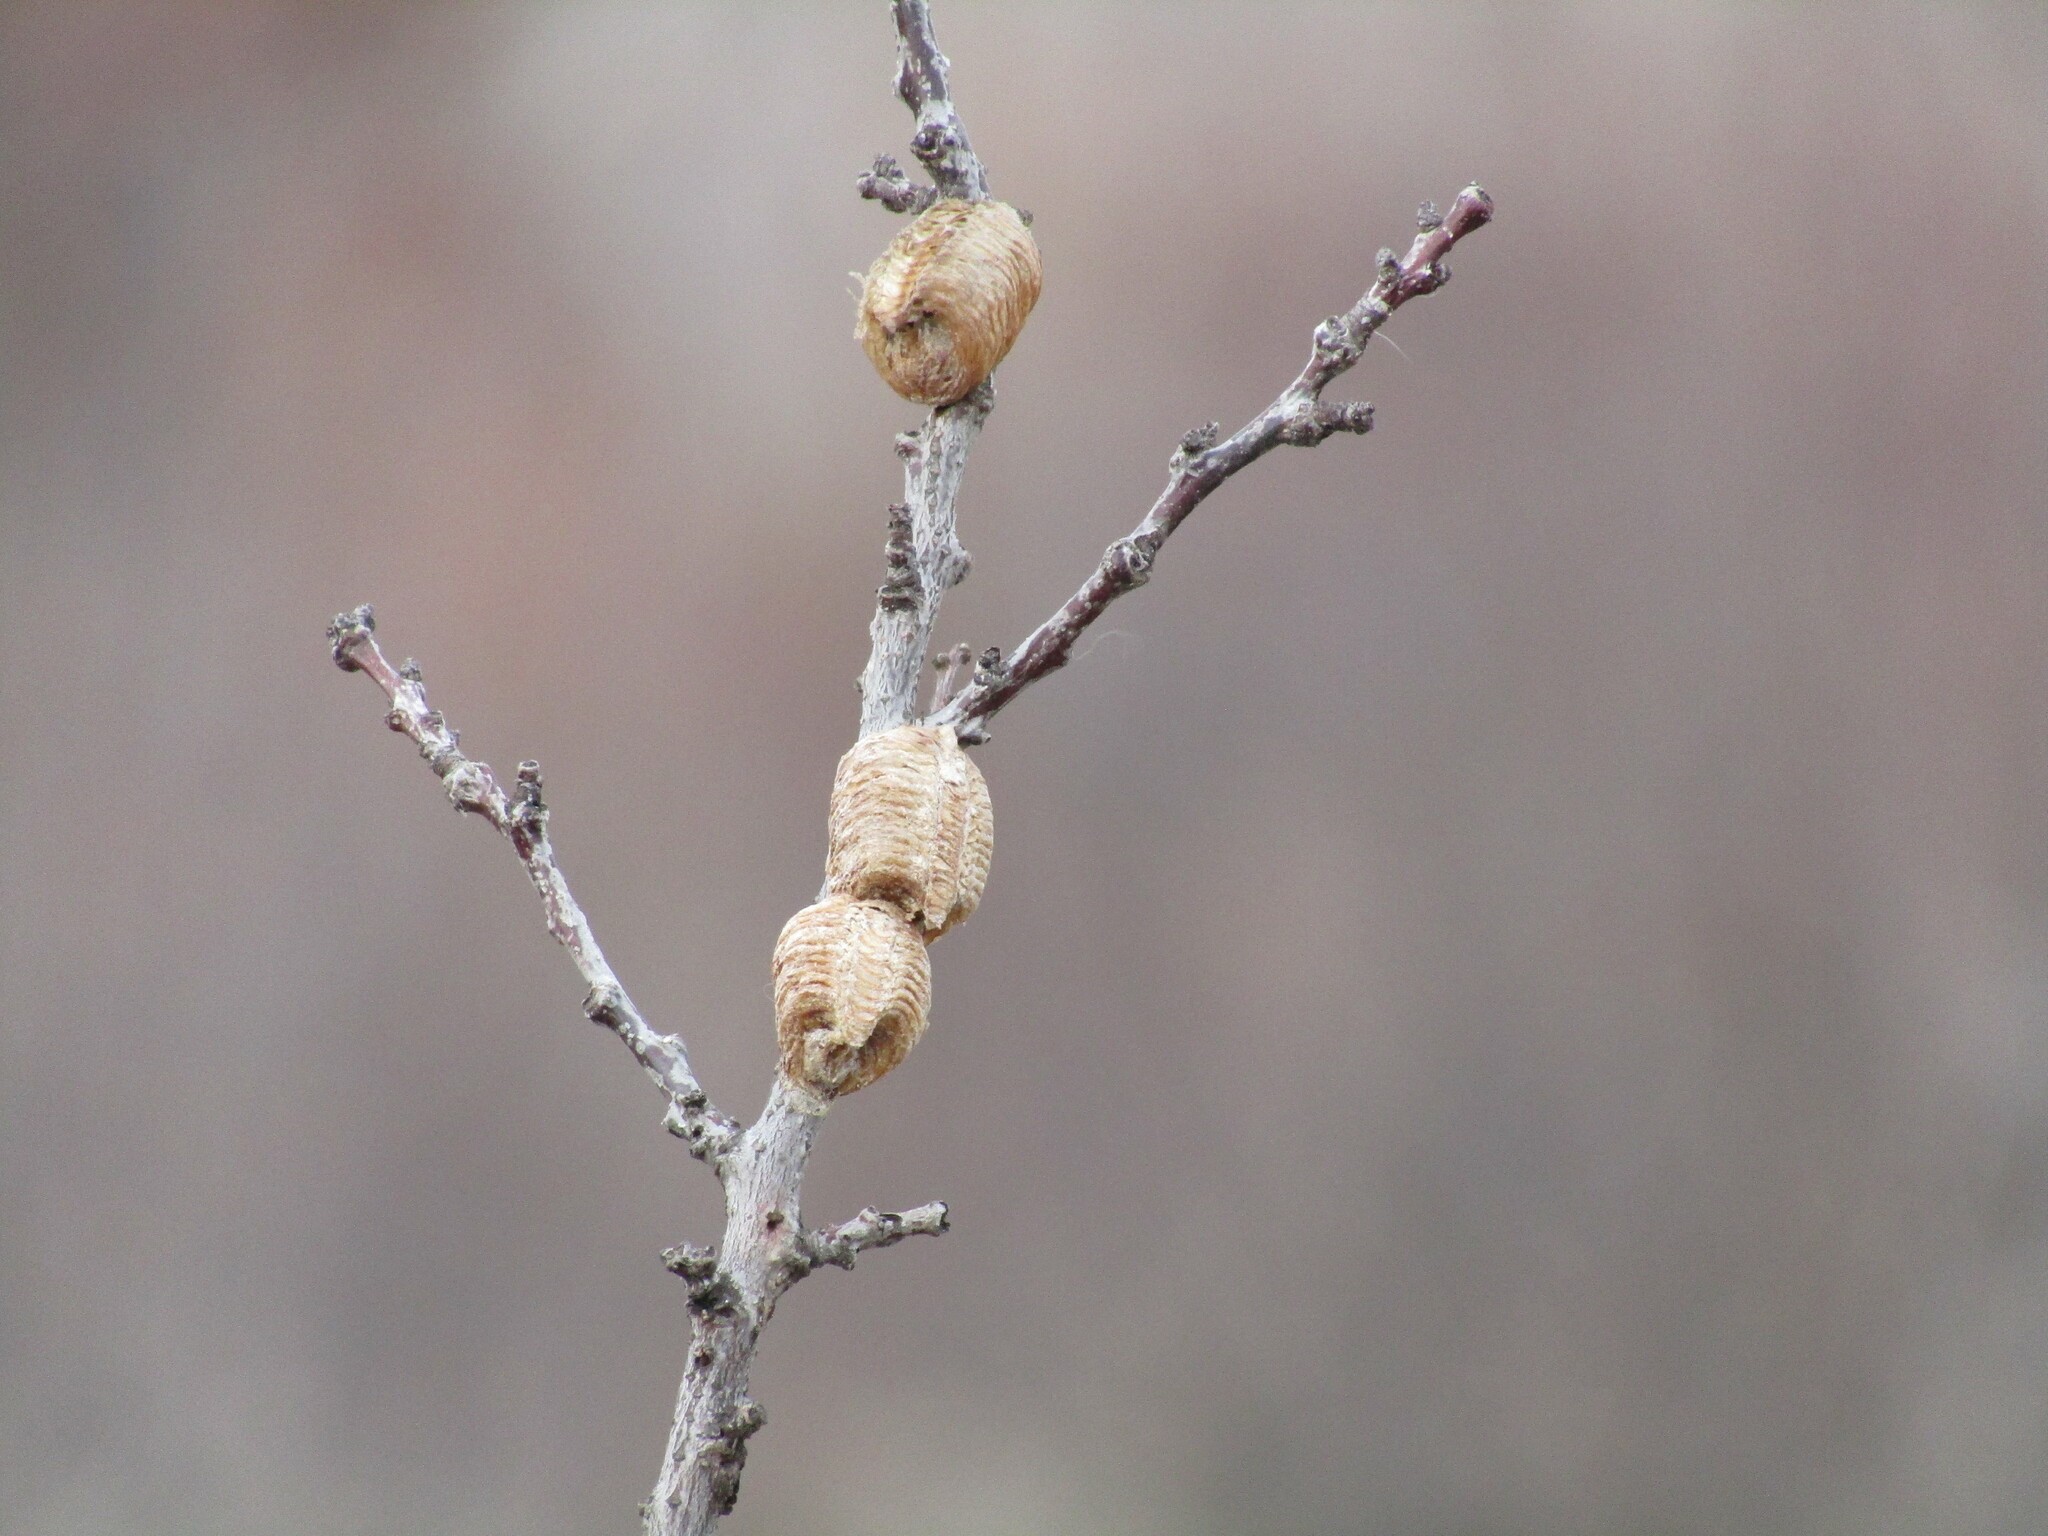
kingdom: Animalia
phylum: Arthropoda
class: Insecta
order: Mantodea
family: Mantidae
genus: Hierodula
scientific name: Hierodula transcaucasica
